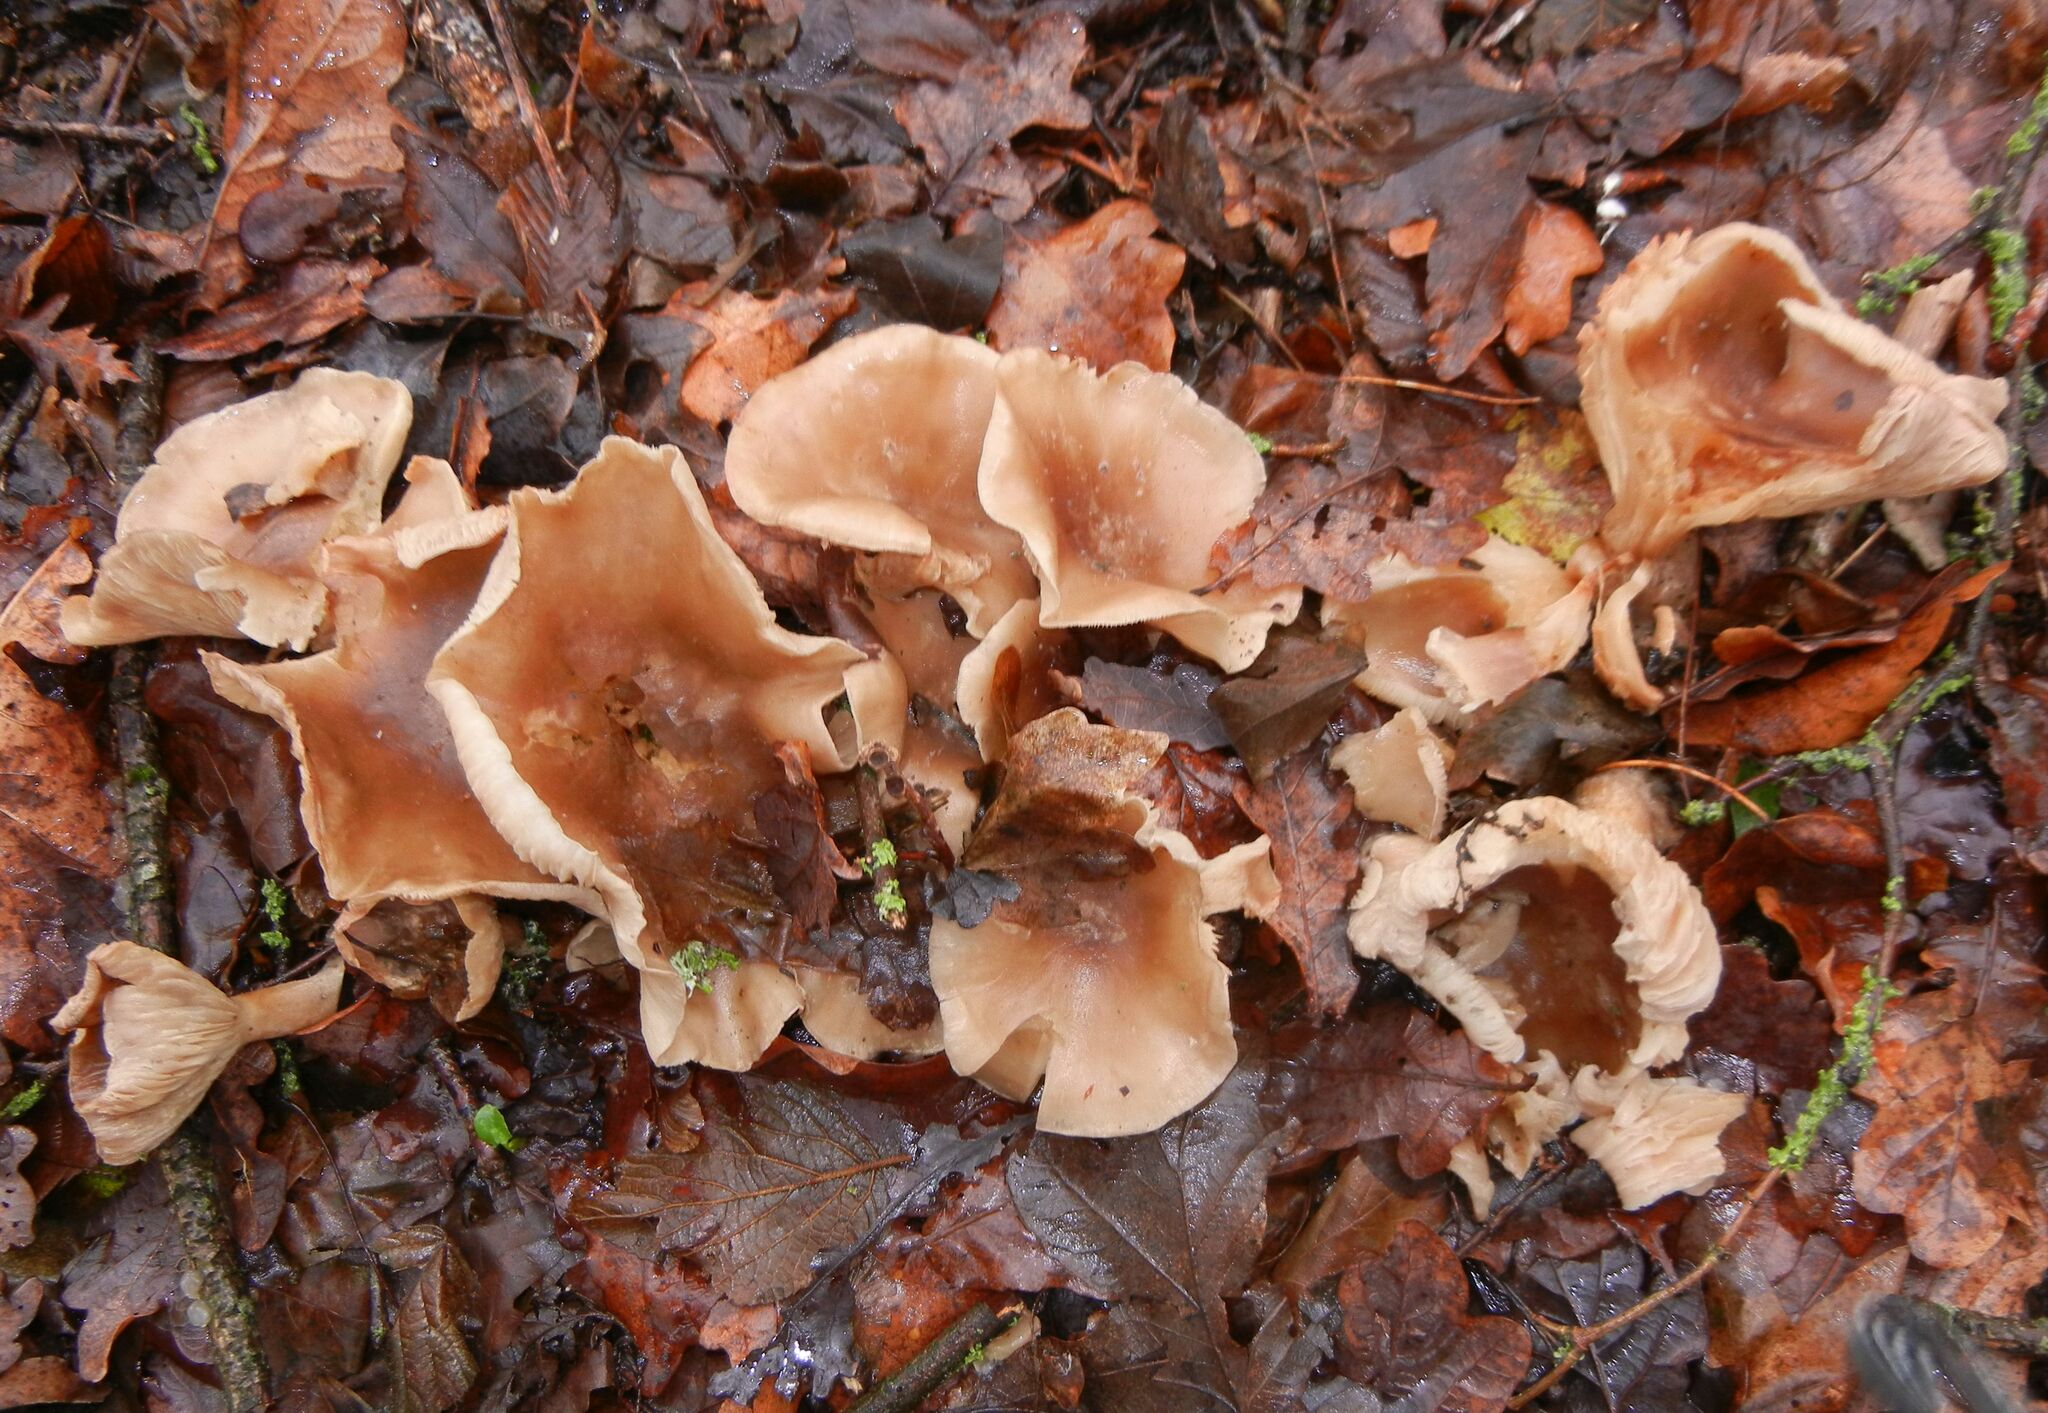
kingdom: Fungi
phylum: Basidiomycota
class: Agaricomycetes
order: Agaricales
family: Omphalotaceae
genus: Rhodocollybia
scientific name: Rhodocollybia butyracea
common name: Butter cap
